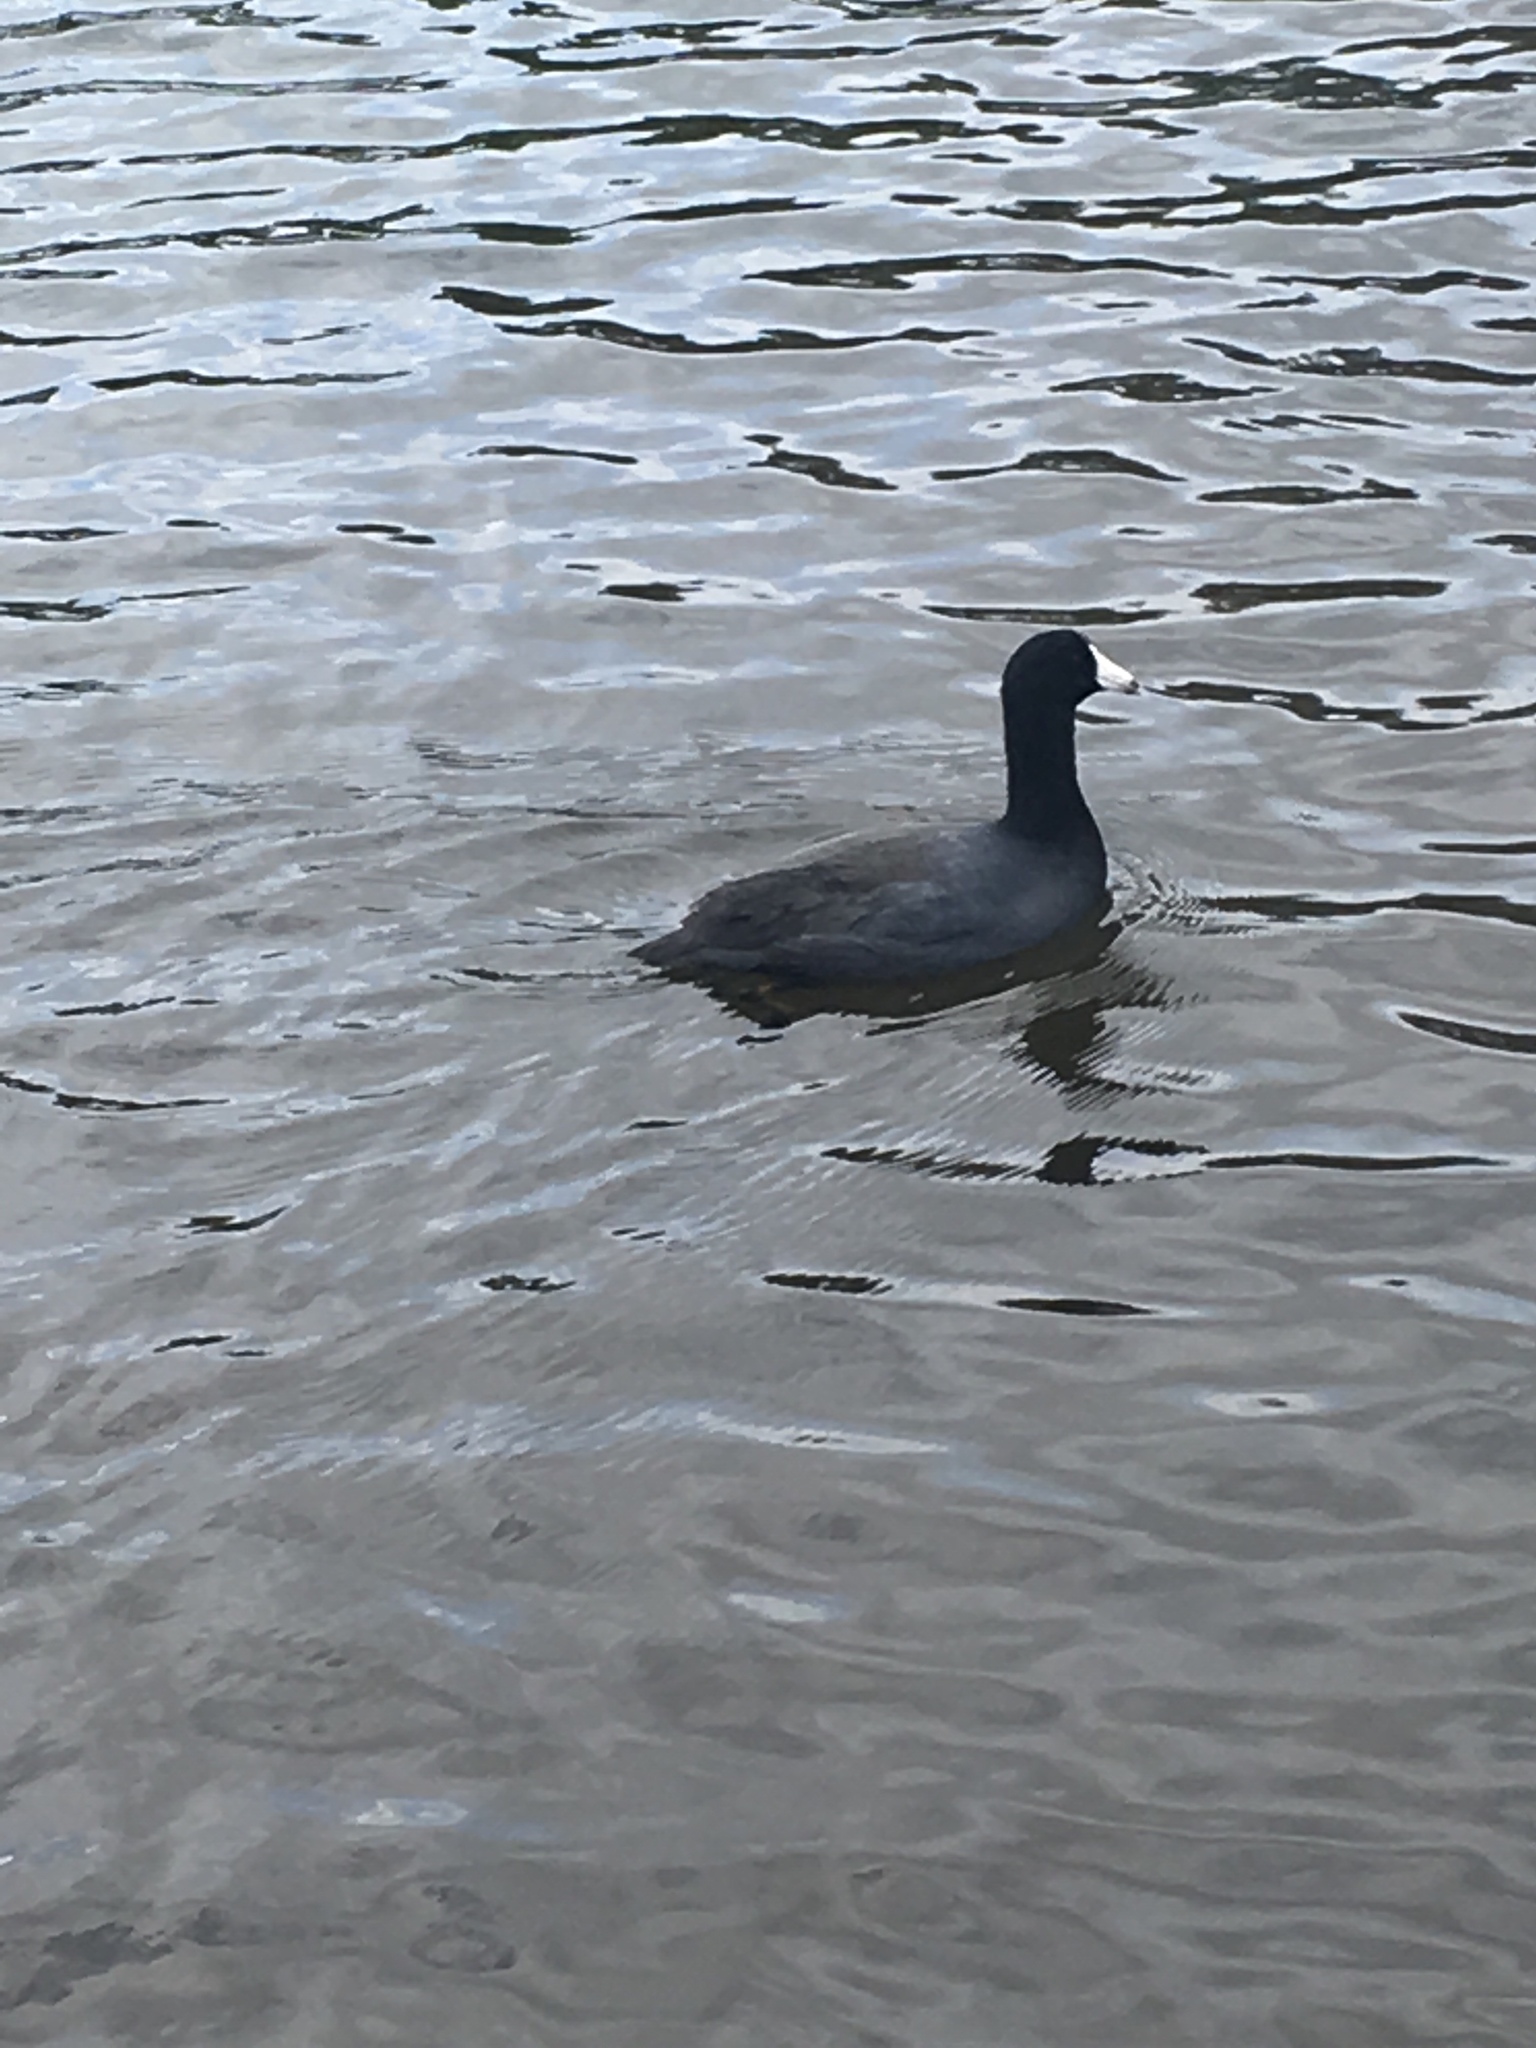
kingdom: Animalia
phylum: Chordata
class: Aves
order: Gruiformes
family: Rallidae
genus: Fulica
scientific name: Fulica americana
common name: American coot
